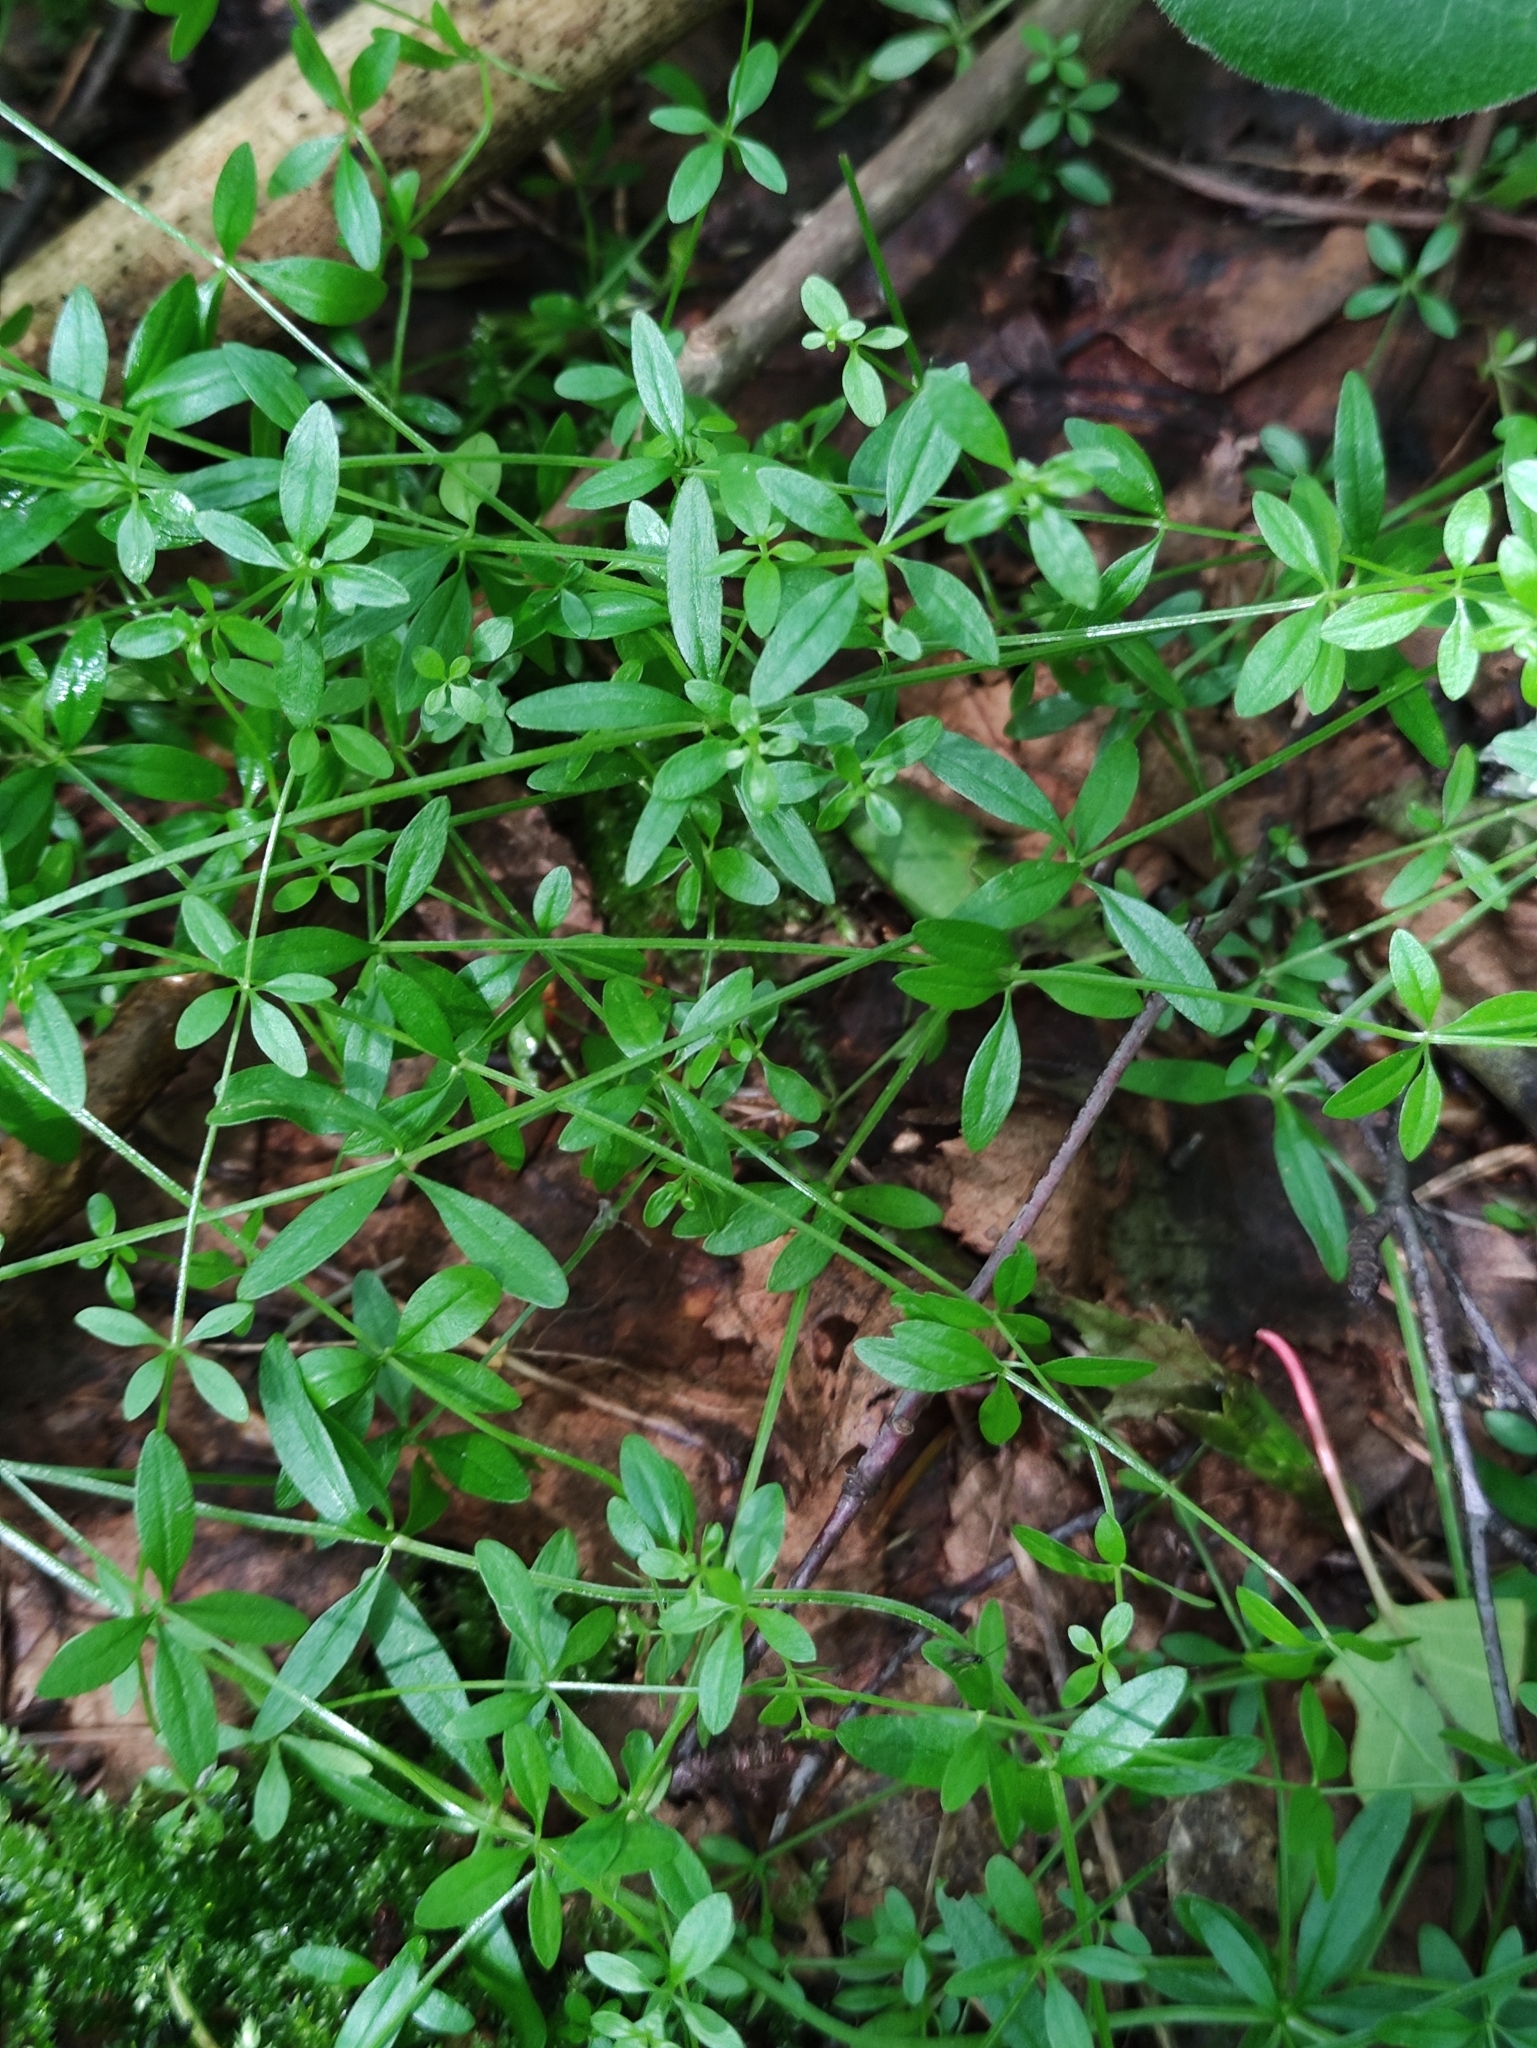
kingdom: Plantae
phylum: Tracheophyta
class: Magnoliopsida
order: Gentianales
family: Rubiaceae
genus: Galium
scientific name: Galium palustre
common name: Common marsh-bedstraw
